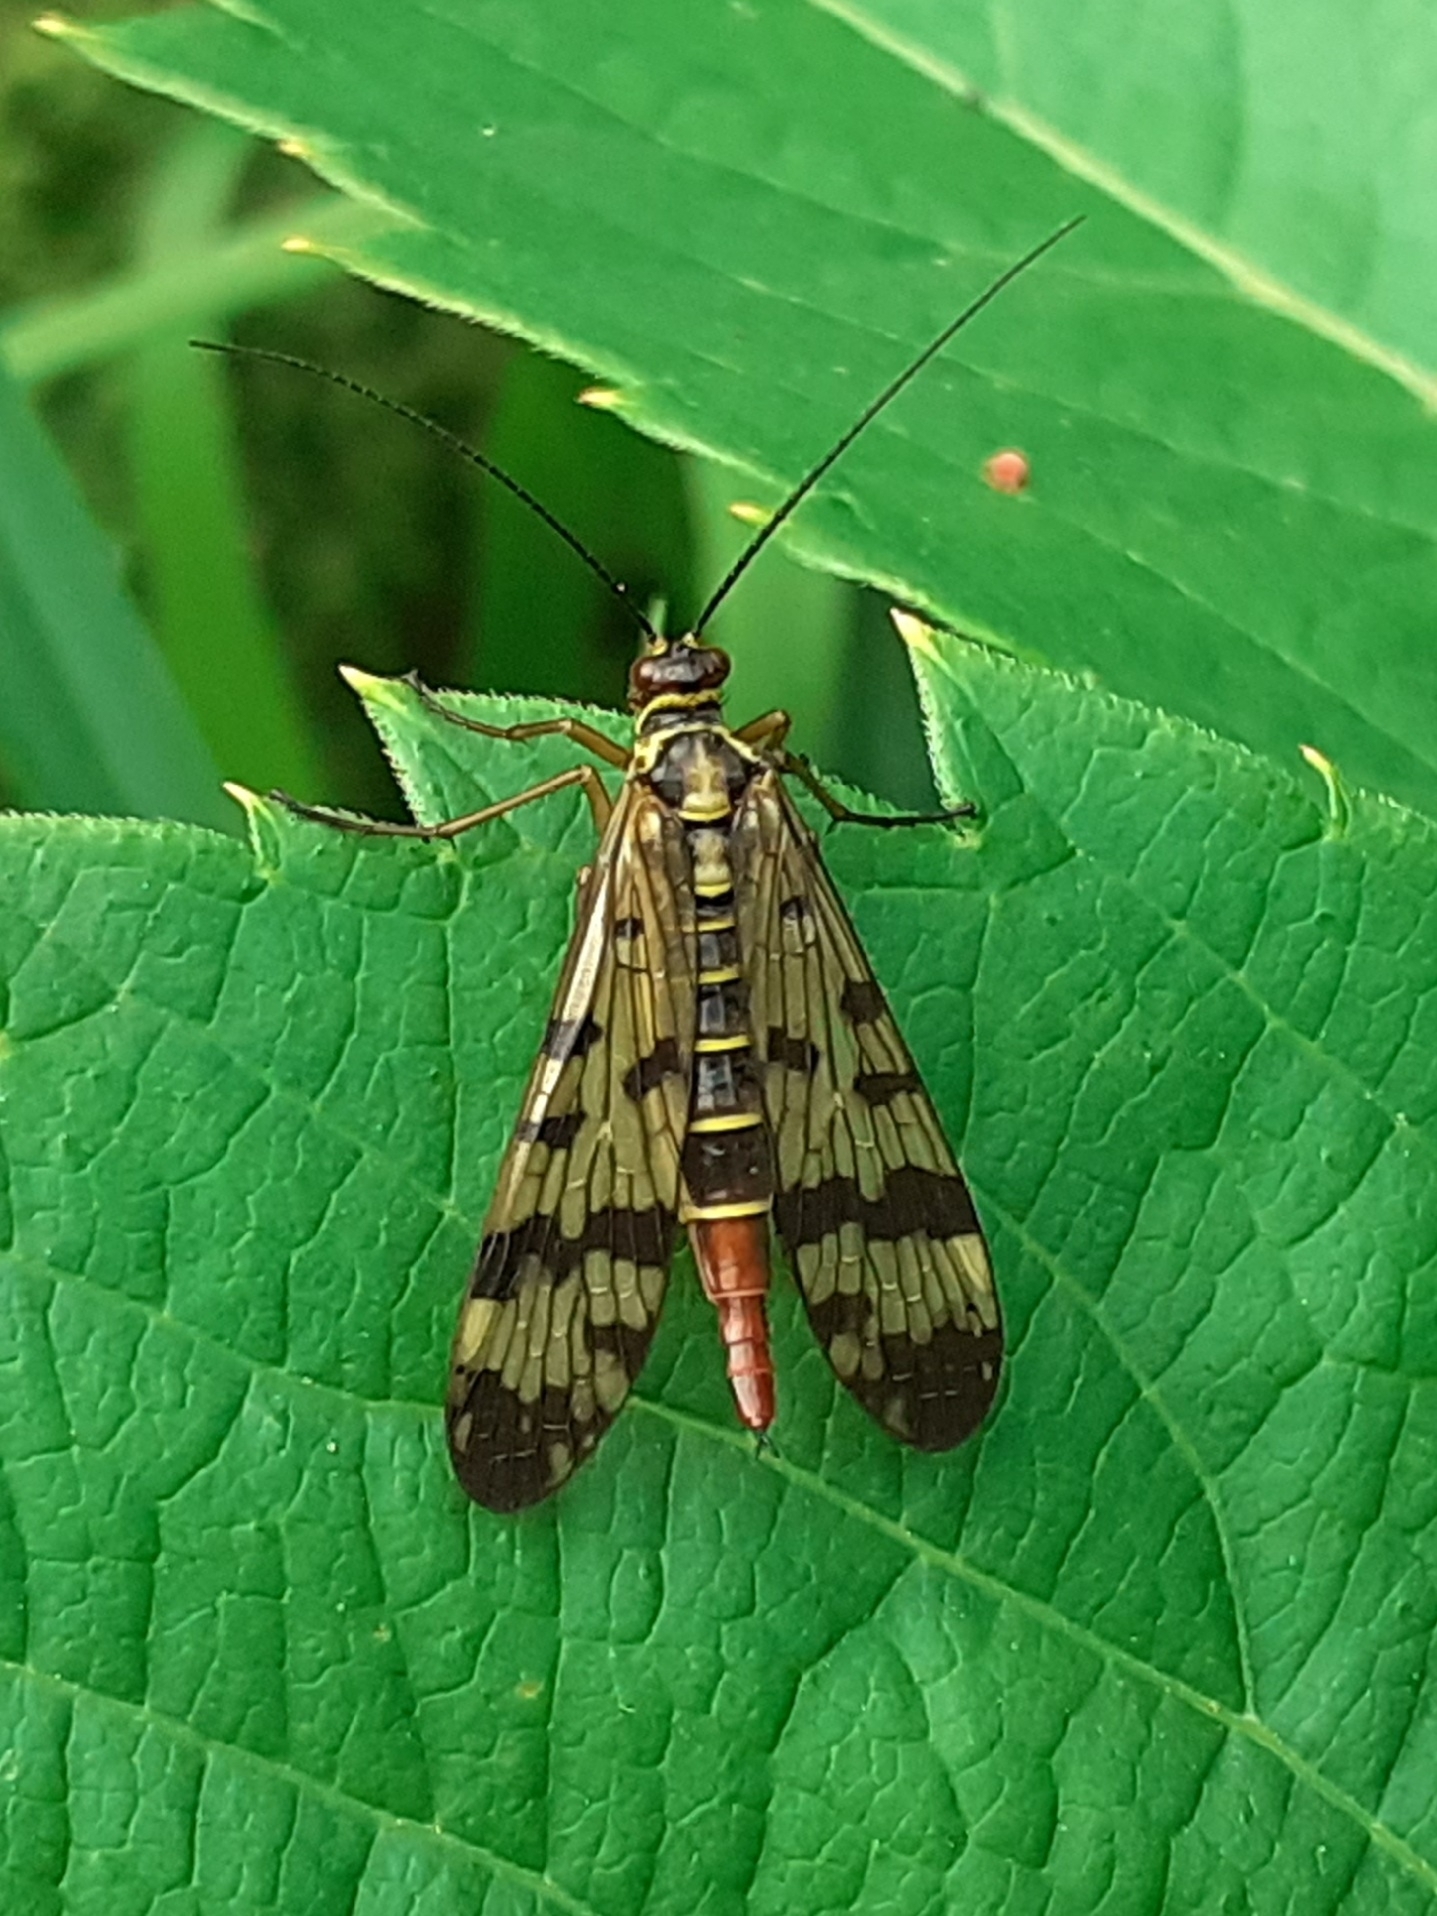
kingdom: Animalia
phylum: Arthropoda
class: Insecta
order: Mecoptera
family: Panorpidae
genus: Panorpa
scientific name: Panorpa communis
